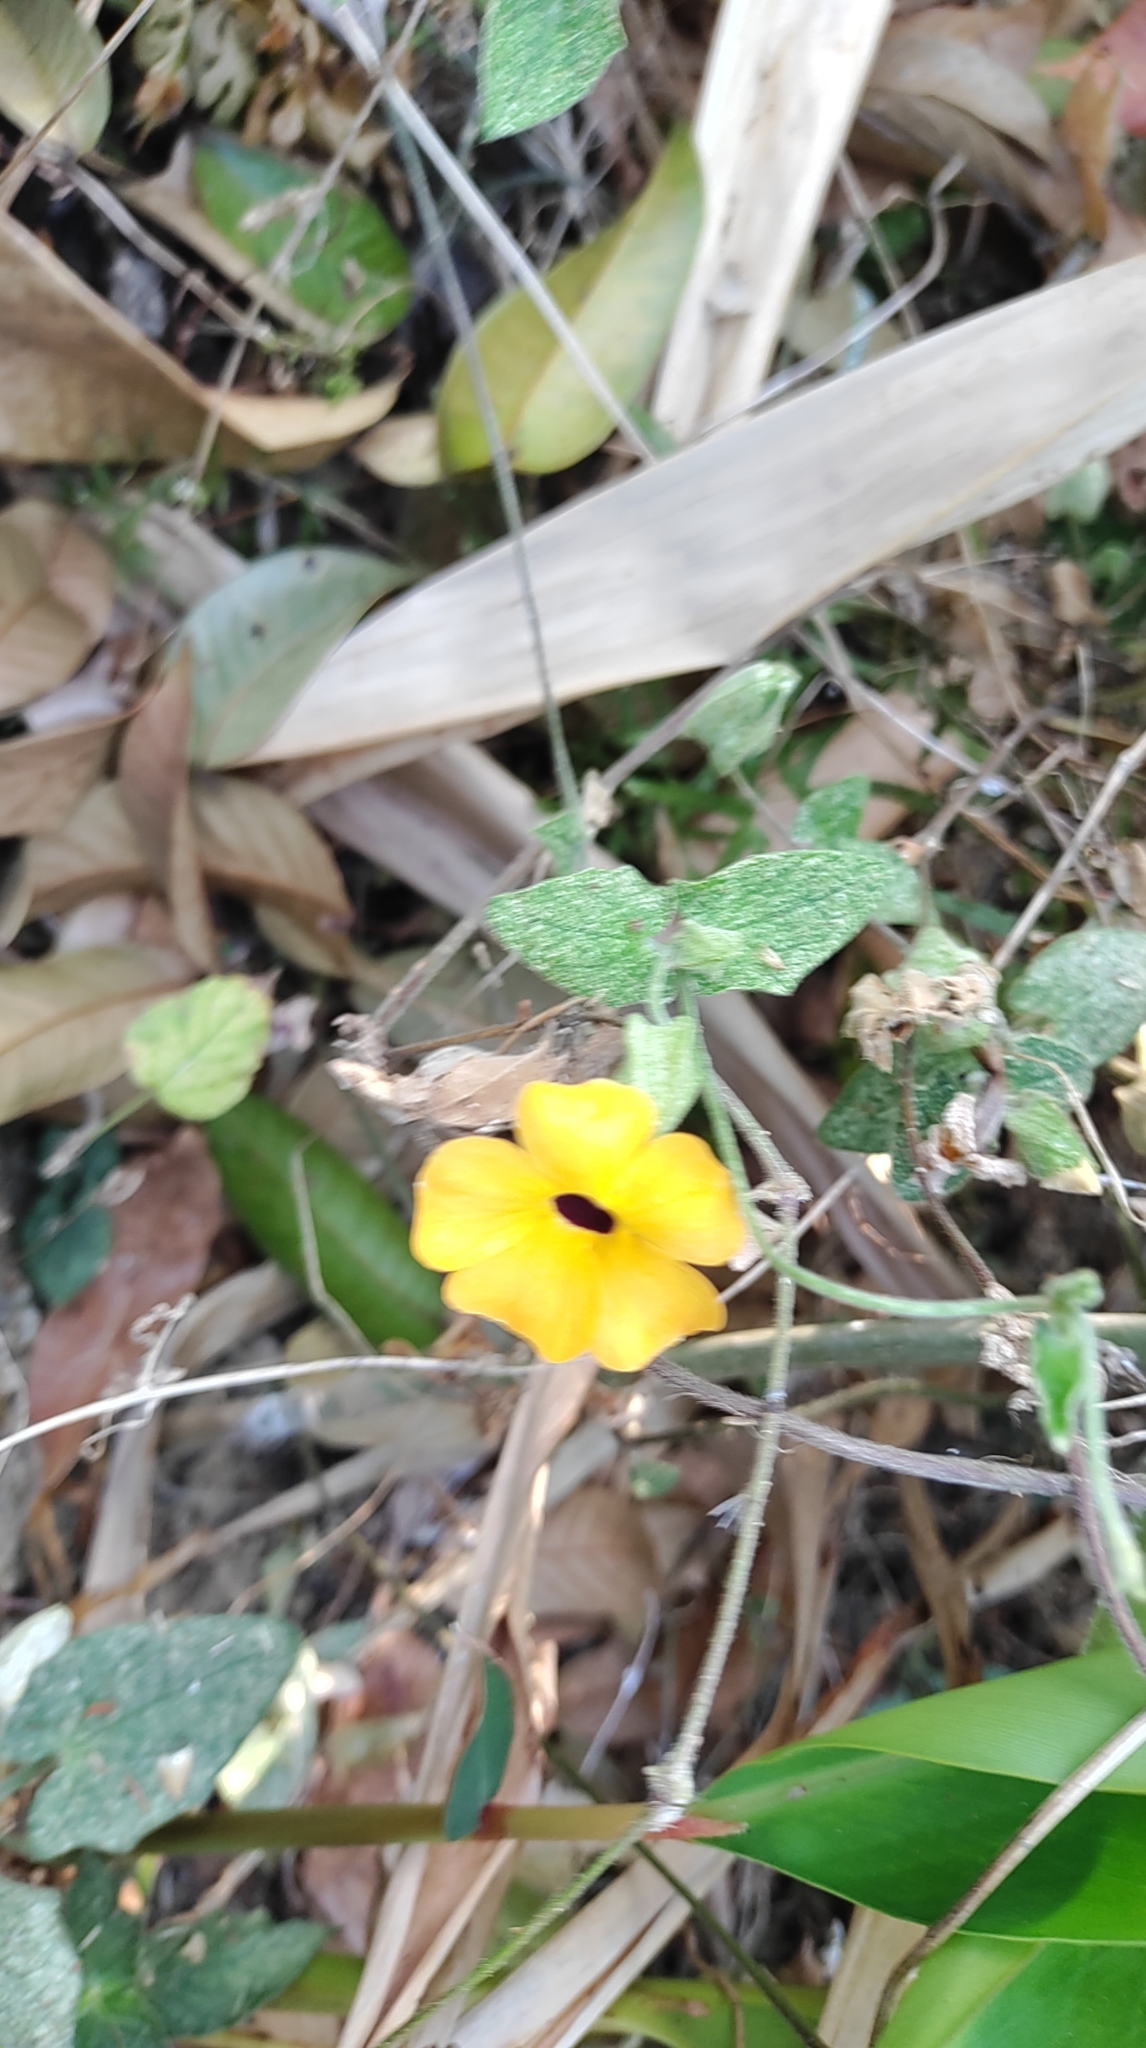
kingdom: Plantae
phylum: Tracheophyta
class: Magnoliopsida
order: Lamiales
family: Acanthaceae
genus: Thunbergia
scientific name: Thunbergia alata
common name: Blackeyed susan vine
